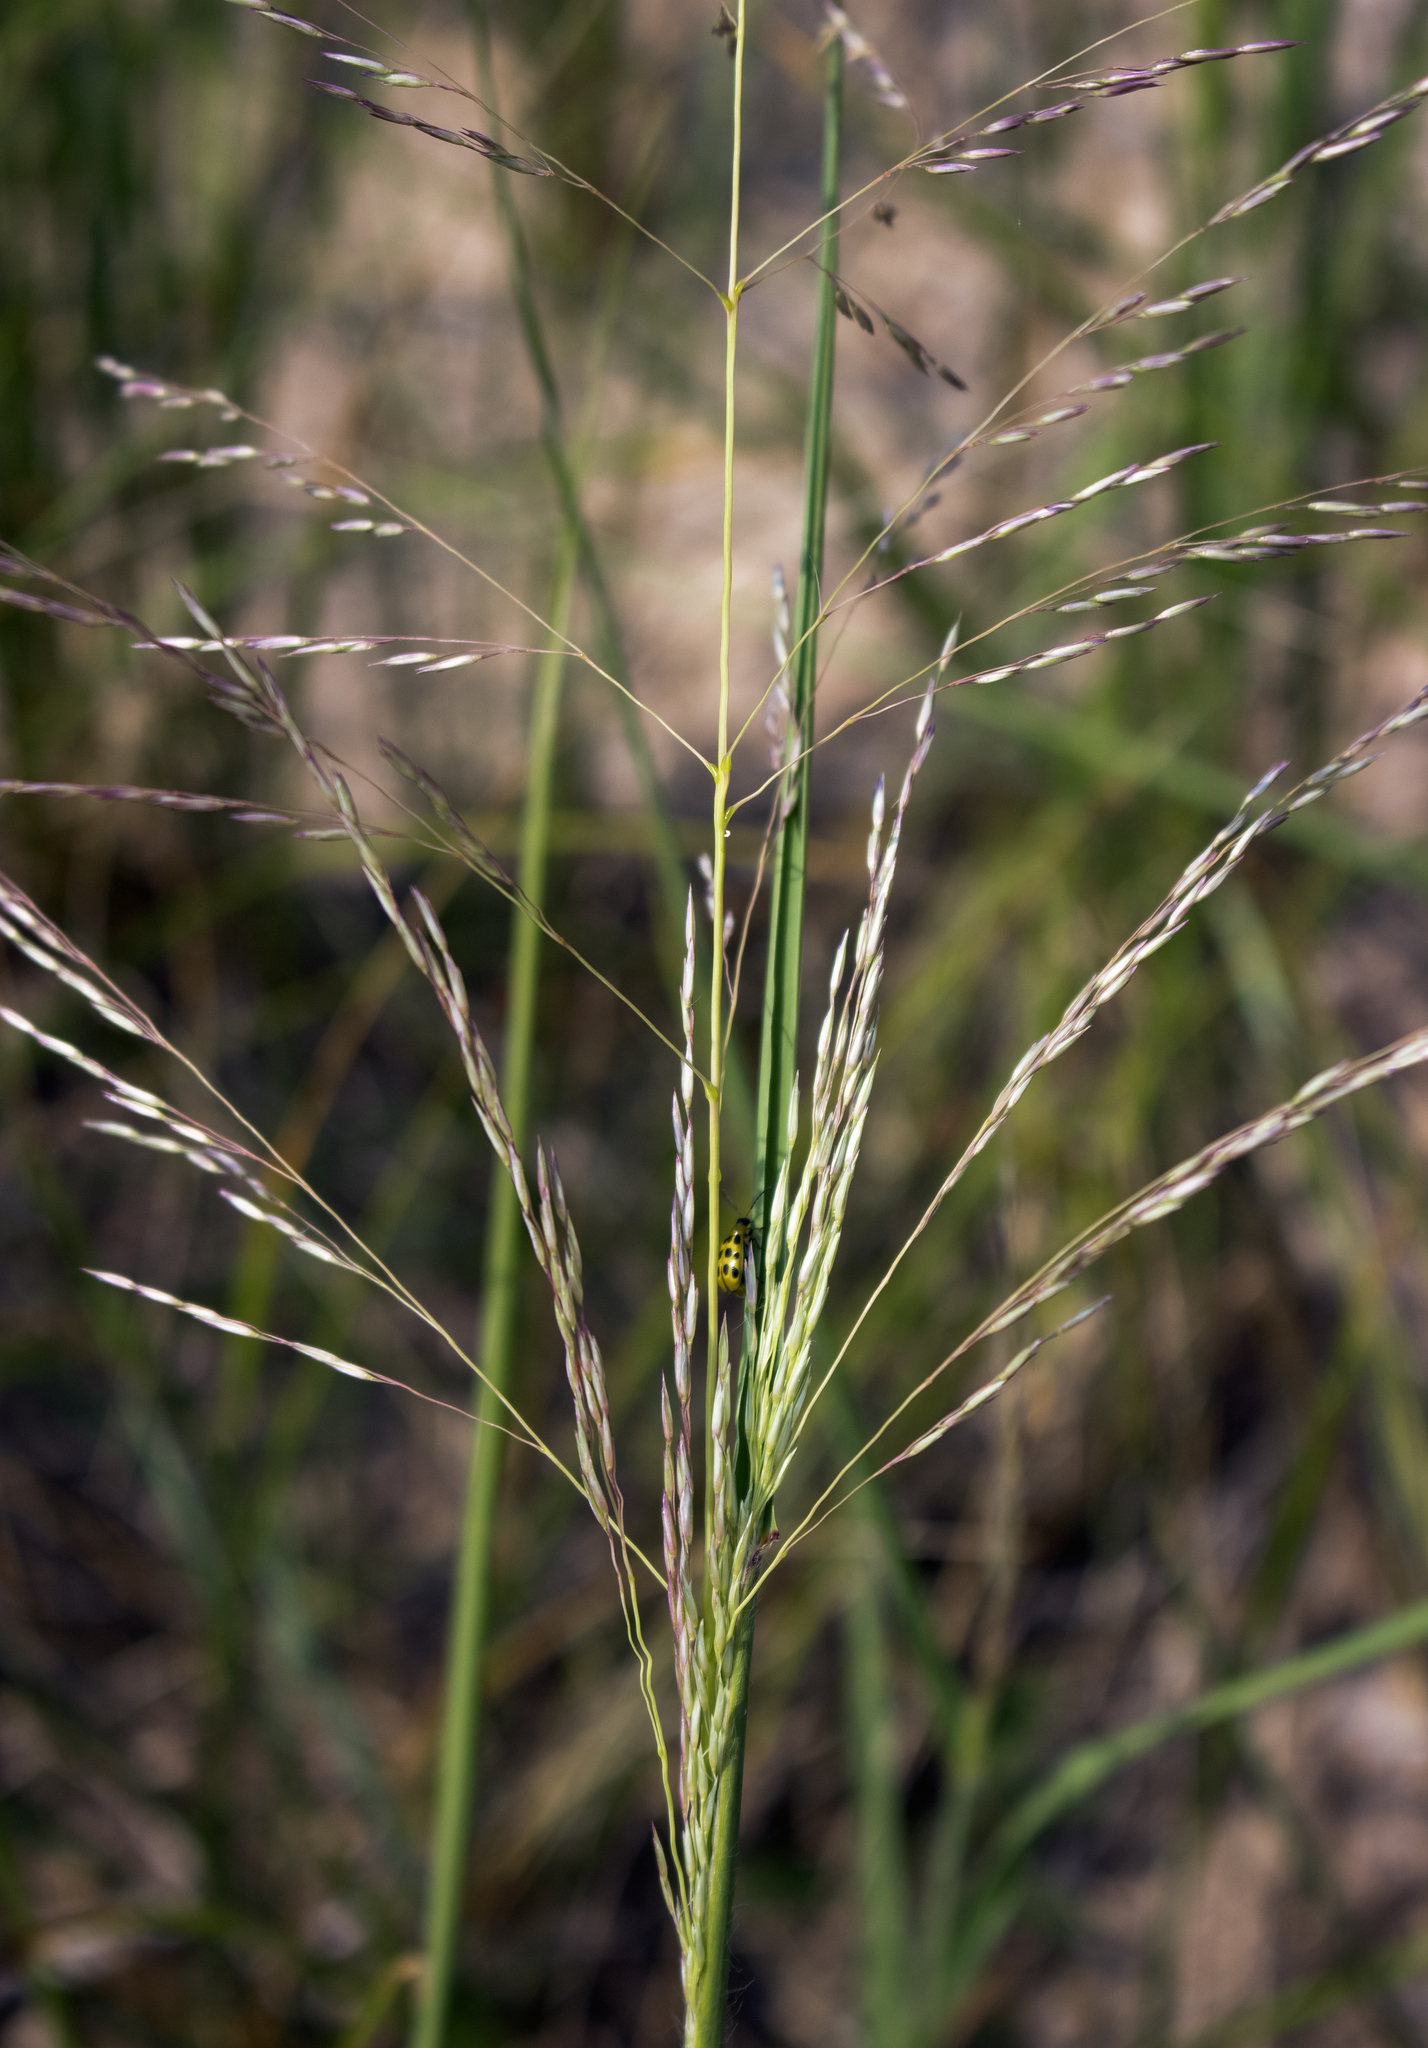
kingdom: Plantae
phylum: Tracheophyta
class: Liliopsida
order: Poales
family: Poaceae
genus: Sporobolus
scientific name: Sporobolus rigidus
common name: Prairie sandreed
